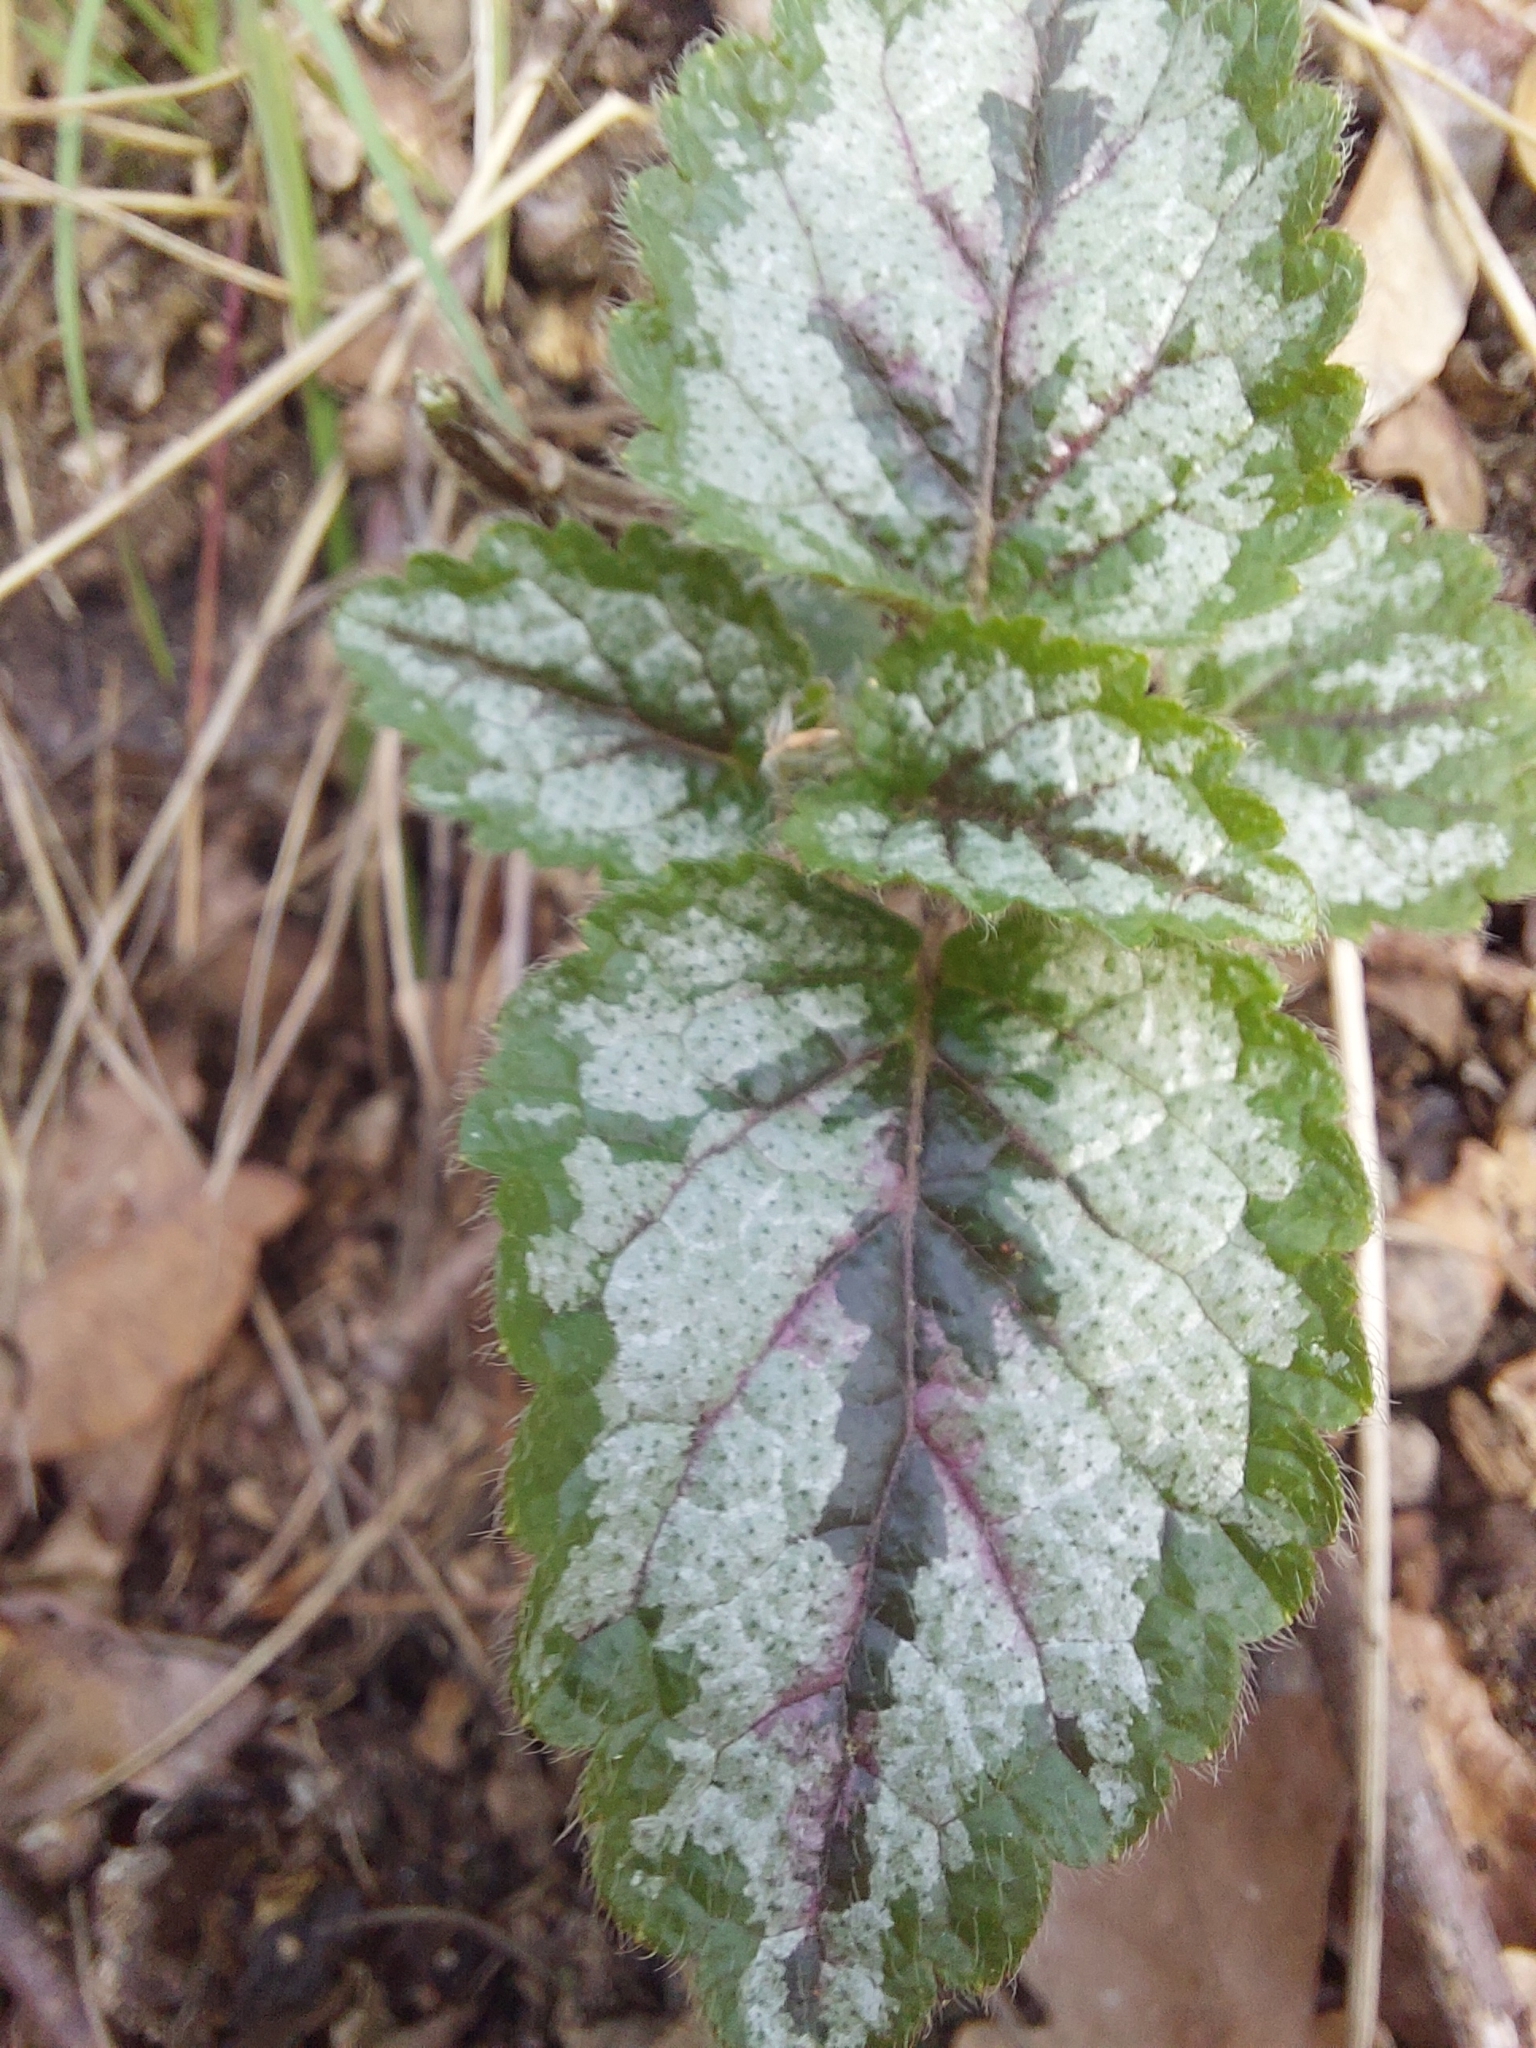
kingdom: Plantae
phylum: Tracheophyta
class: Magnoliopsida
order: Lamiales
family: Lamiaceae
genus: Lamium
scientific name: Lamium galeobdolon
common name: Yellow archangel
